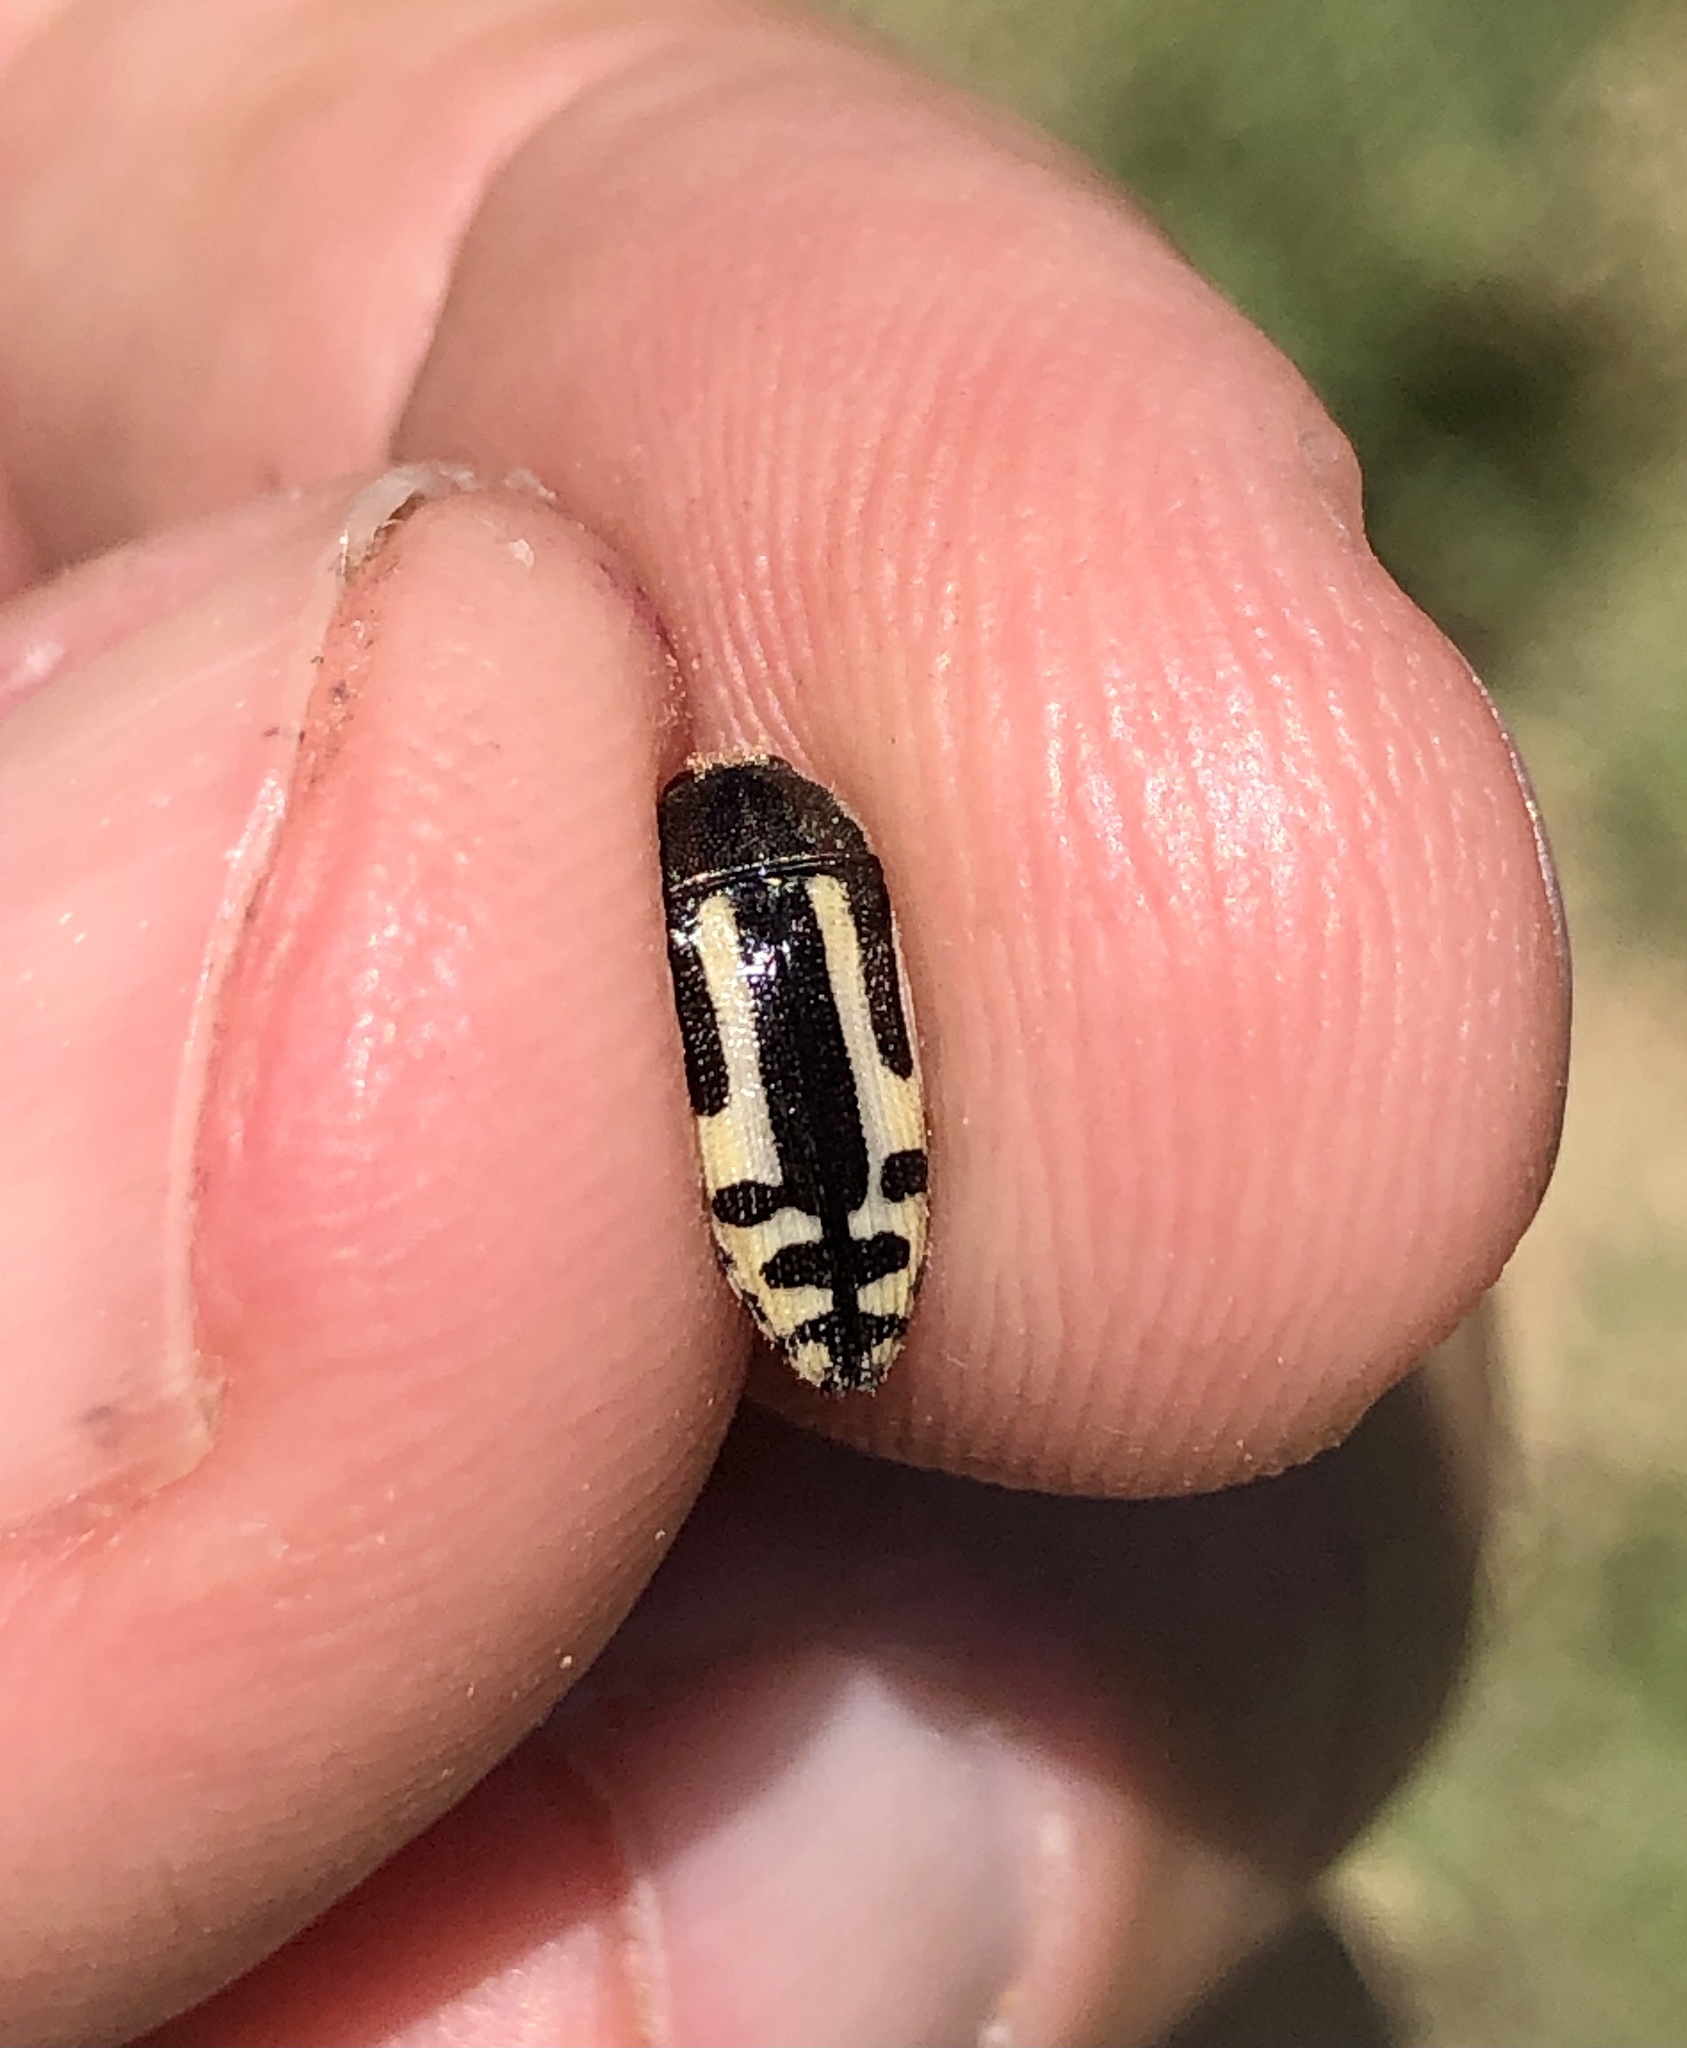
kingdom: Animalia
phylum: Arthropoda
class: Insecta
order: Coleoptera
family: Buprestidae
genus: Acmaeodera
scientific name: Acmaeodera scalaris
